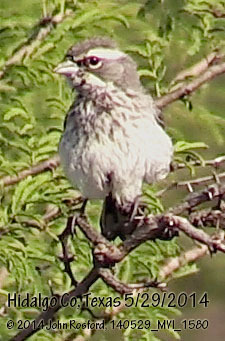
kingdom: Animalia
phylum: Chordata
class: Aves
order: Passeriformes
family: Passerellidae
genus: Amphispiza
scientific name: Amphispiza bilineata
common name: Black-throated sparrow
